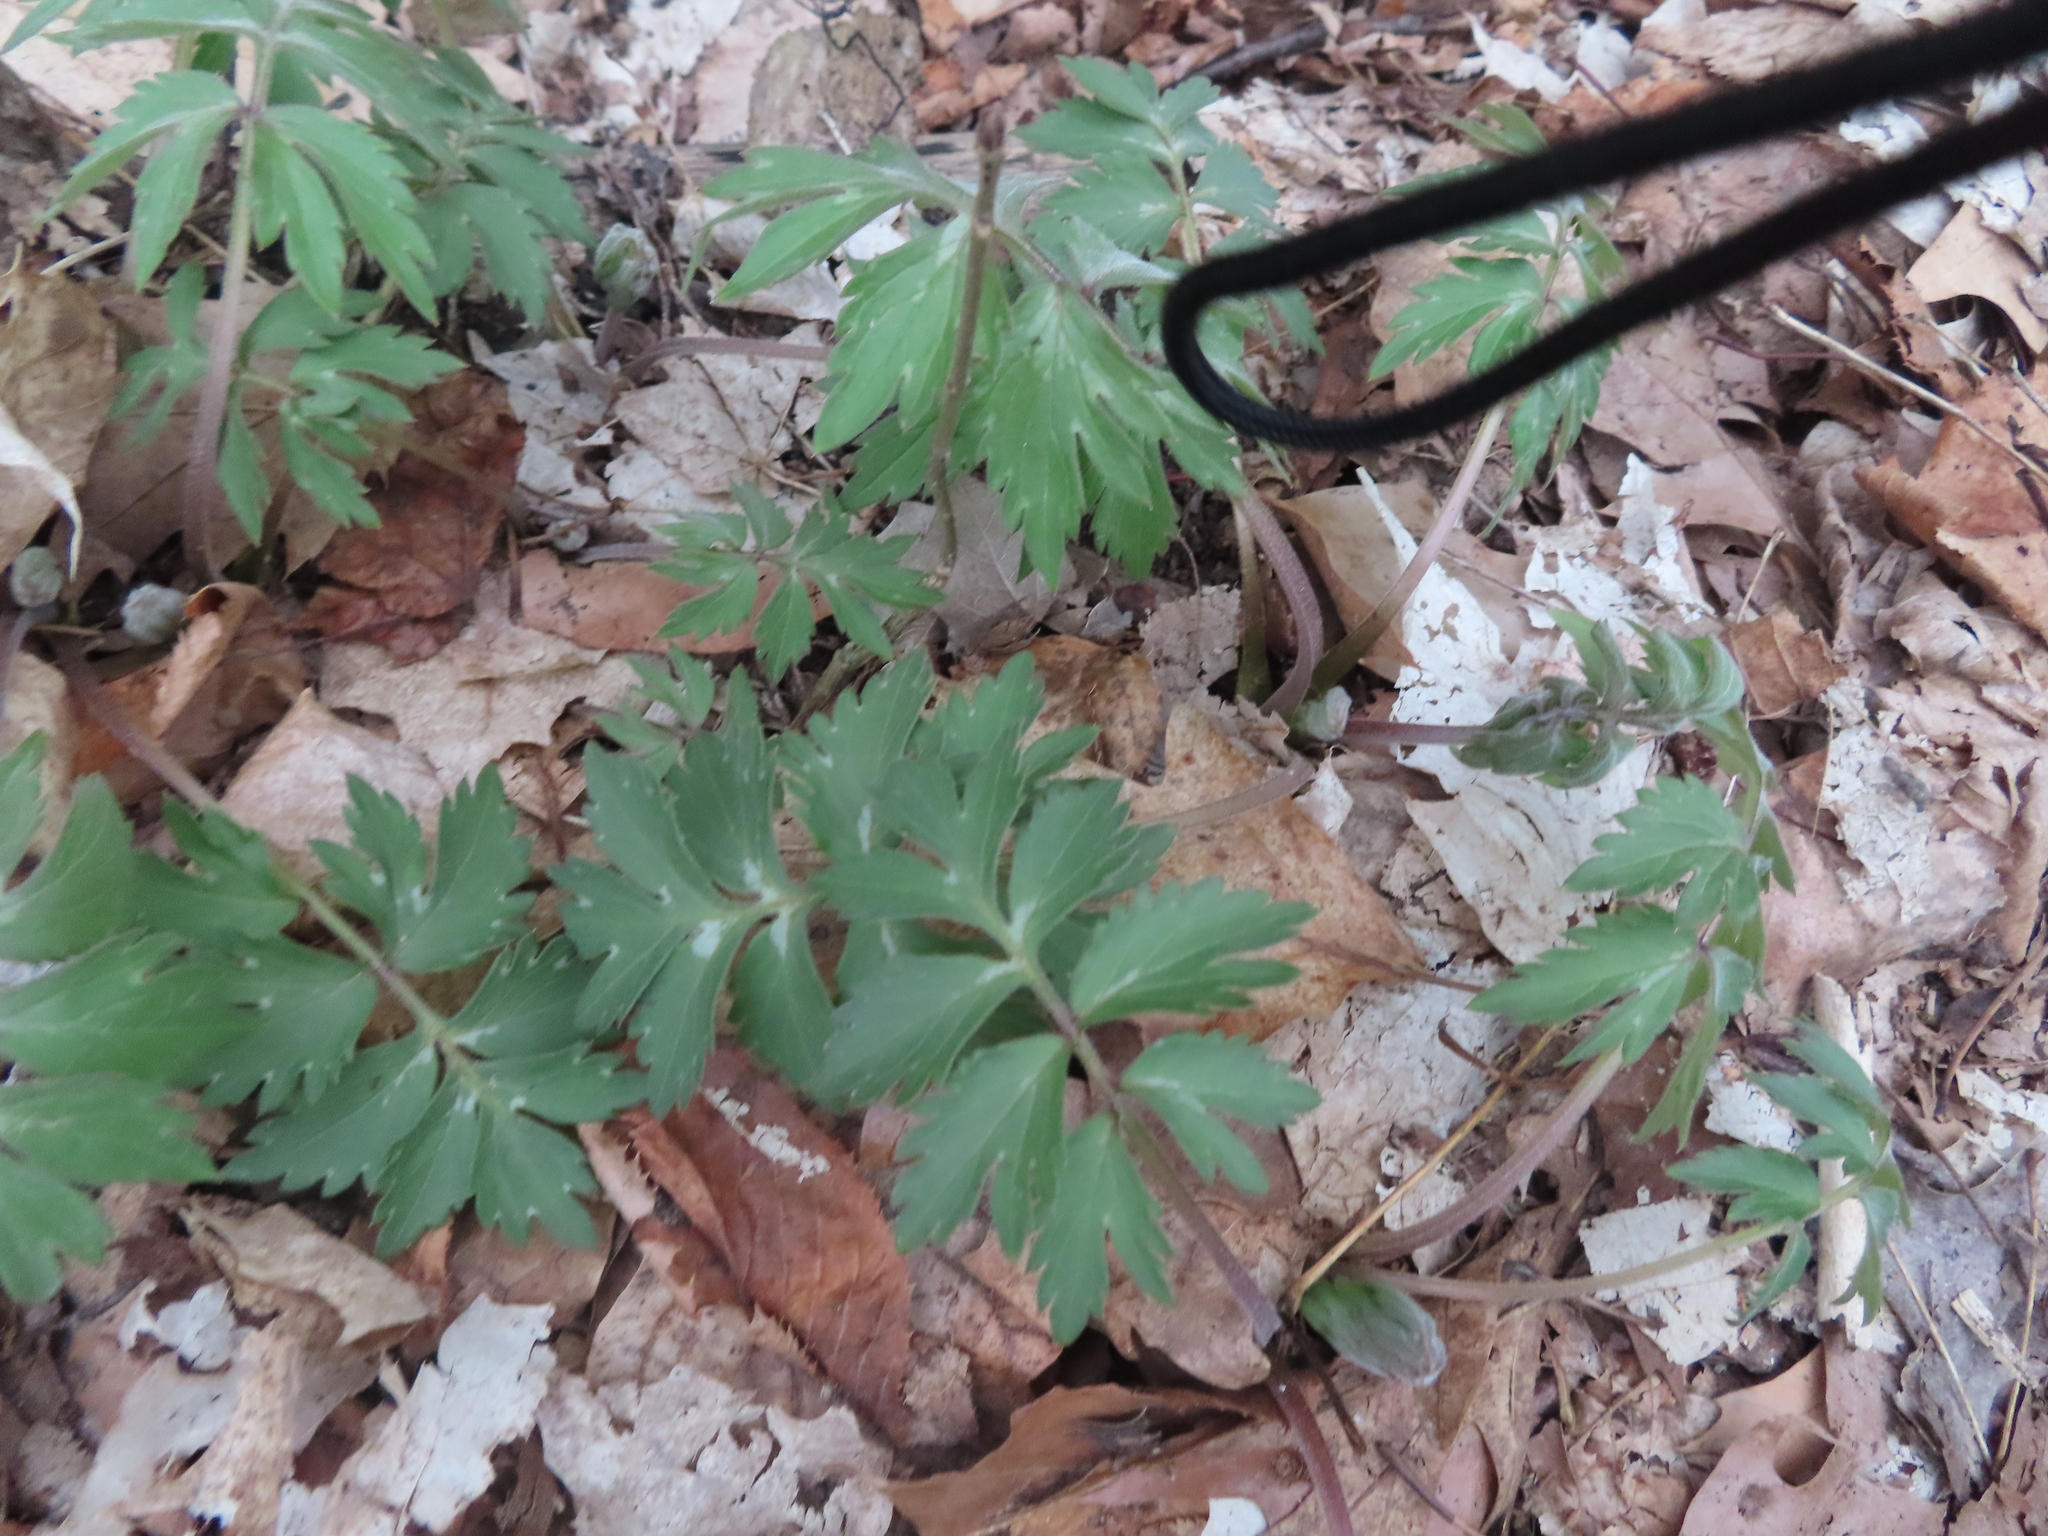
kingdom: Plantae
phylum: Tracheophyta
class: Magnoliopsida
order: Boraginales
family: Hydrophyllaceae
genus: Hydrophyllum
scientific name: Hydrophyllum virginianum
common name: Virginia waterleaf
